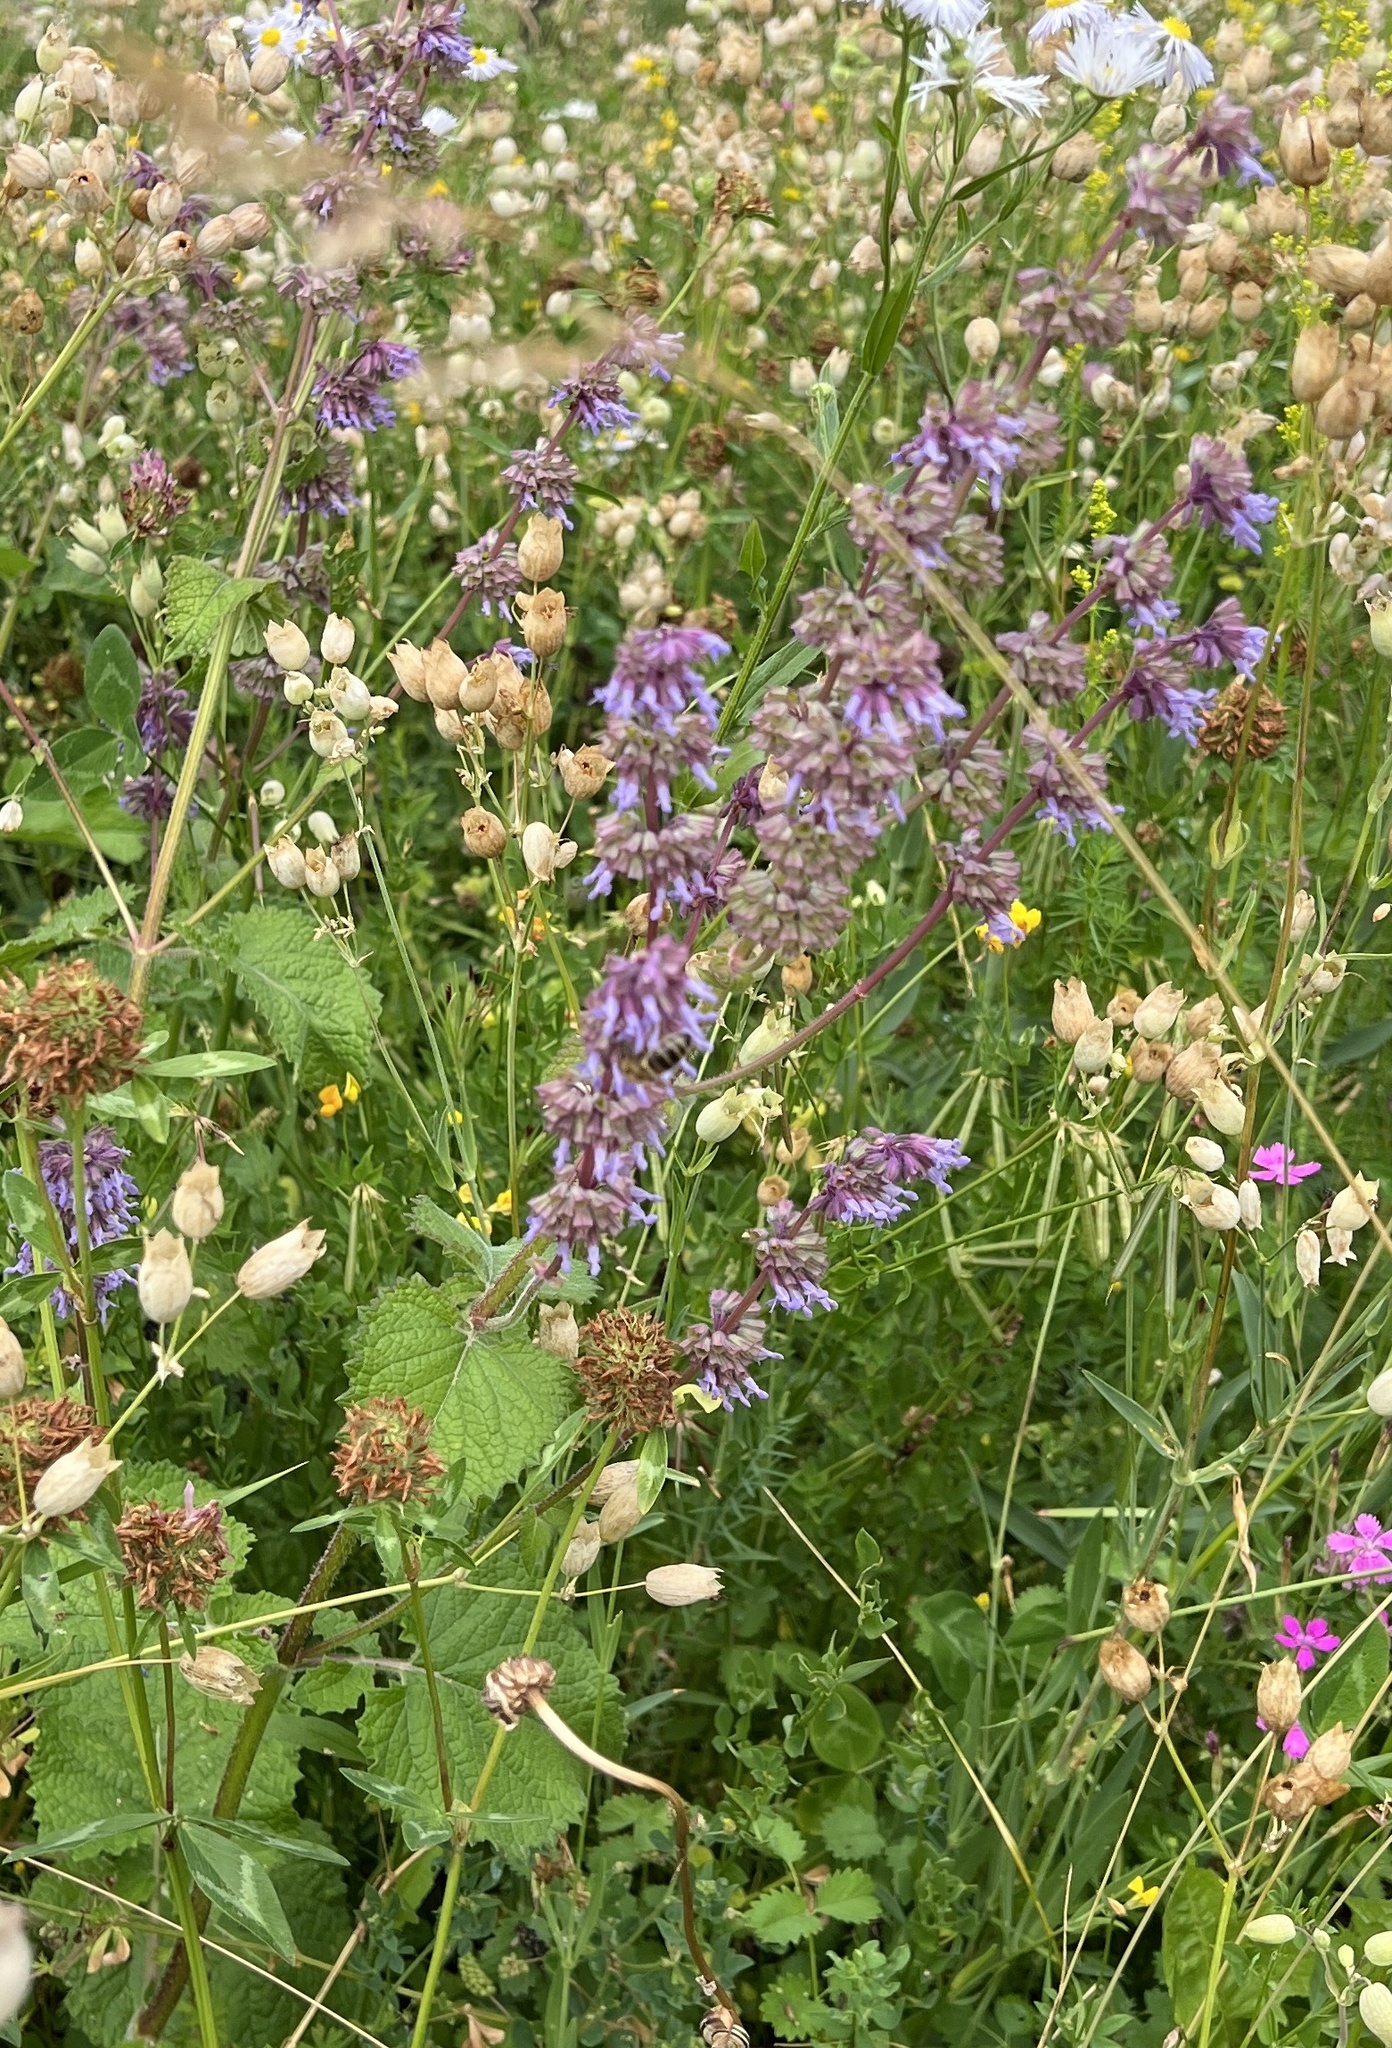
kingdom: Plantae
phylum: Tracheophyta
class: Magnoliopsida
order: Lamiales
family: Lamiaceae
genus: Salvia
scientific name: Salvia verticillata
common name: Whorled clary
